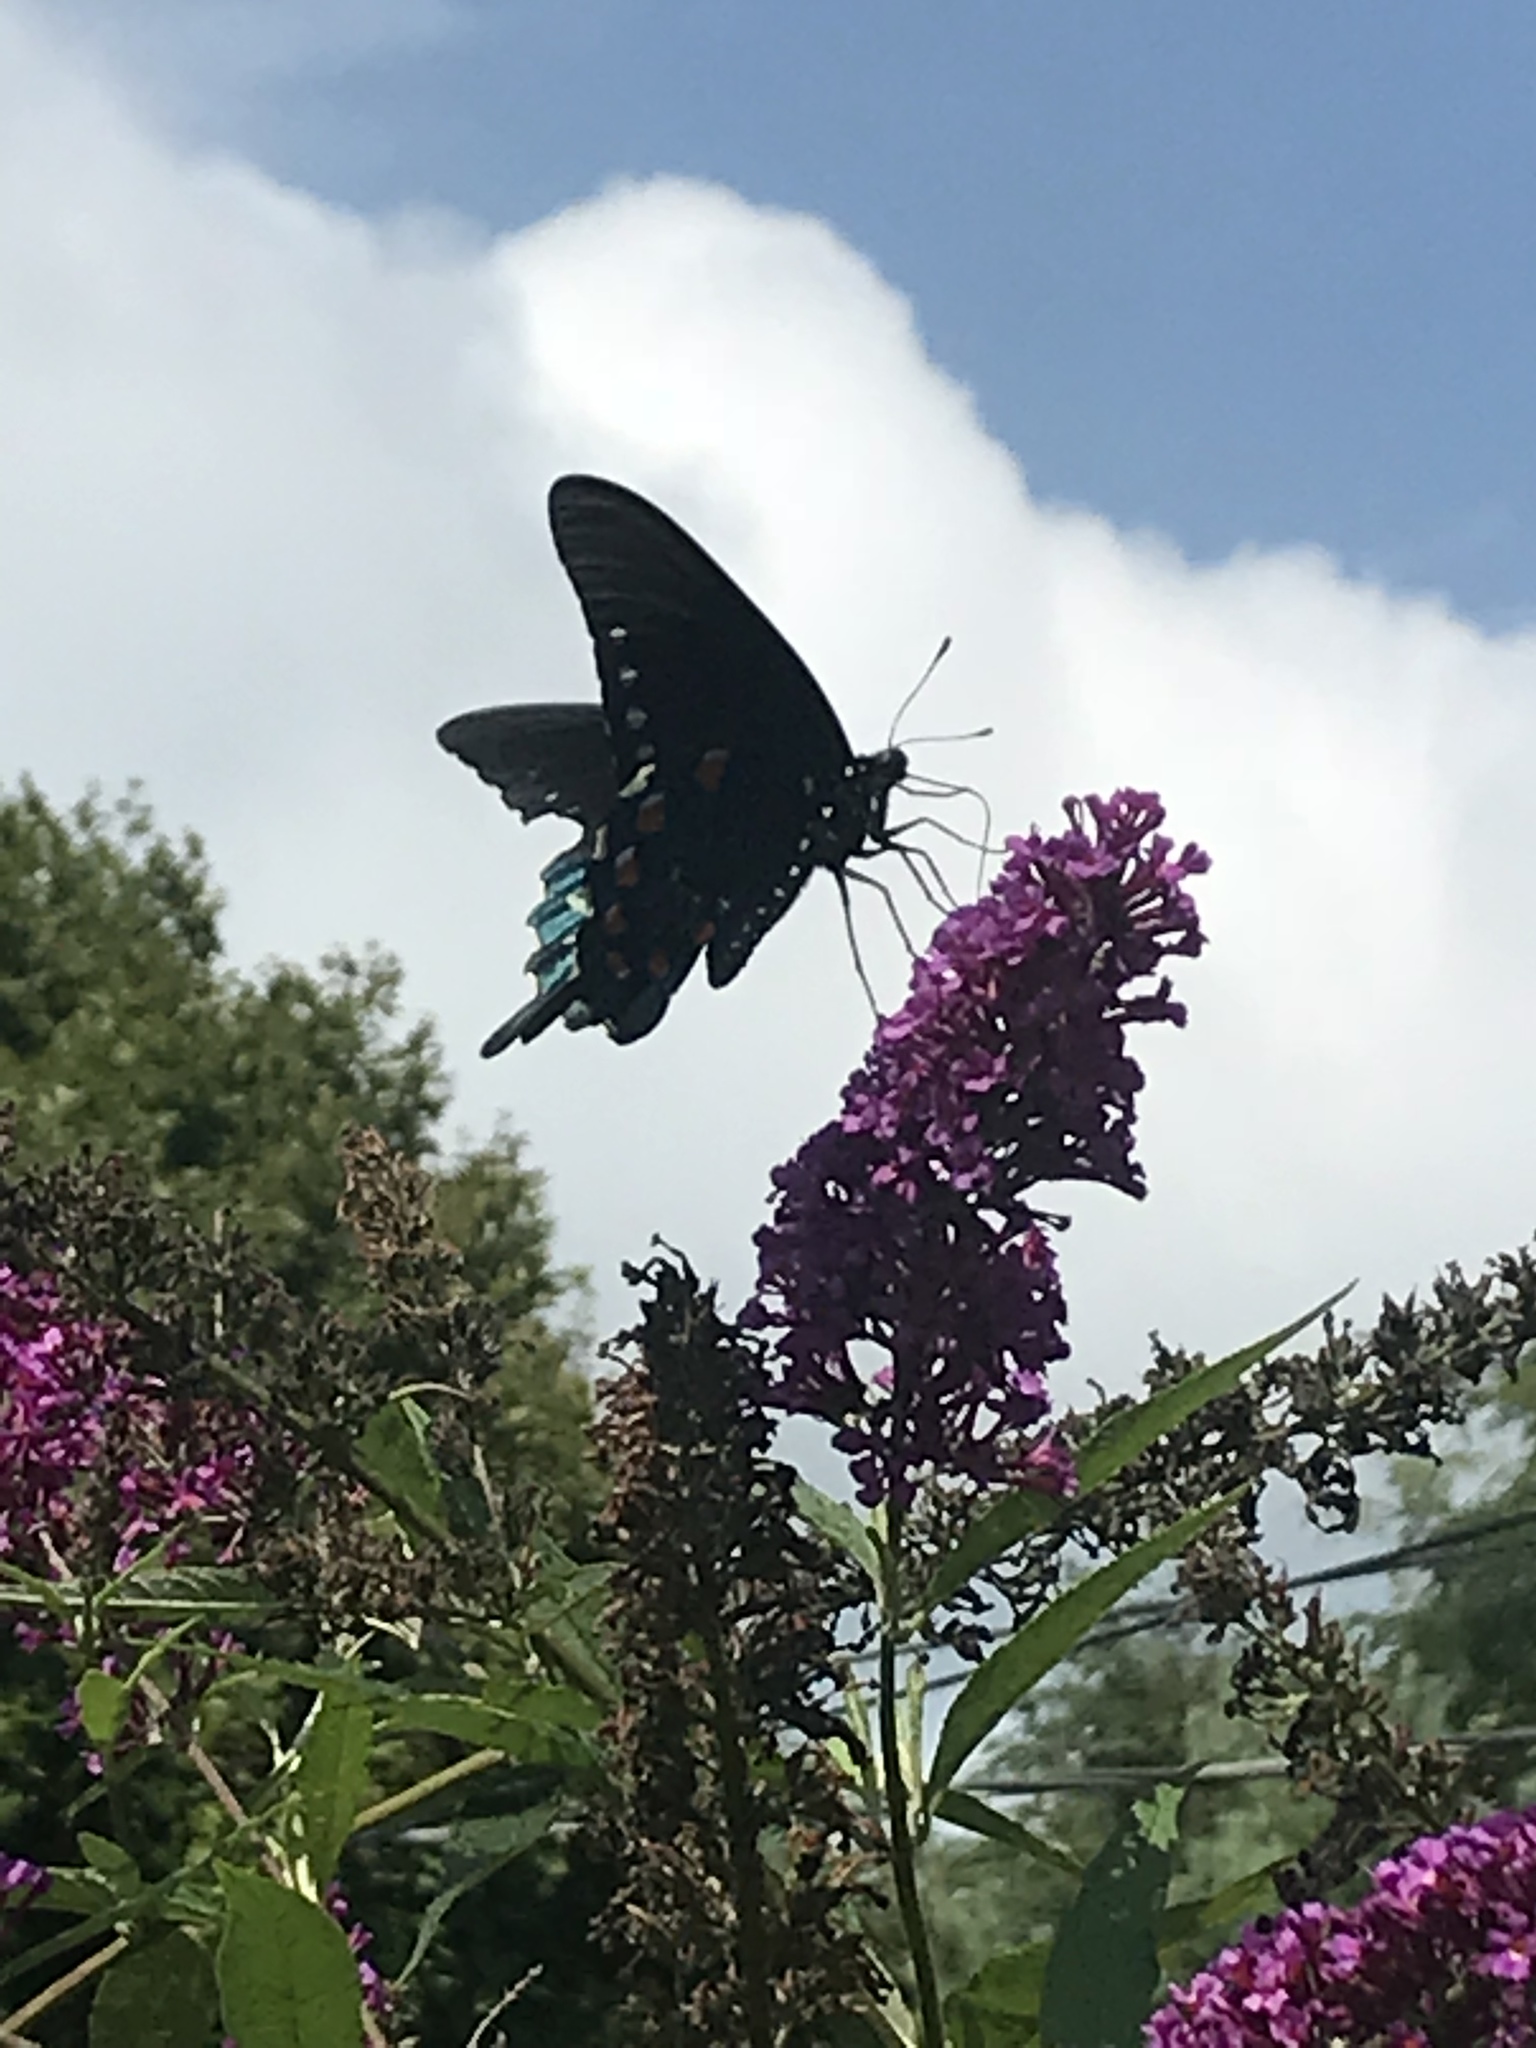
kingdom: Animalia
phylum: Arthropoda
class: Insecta
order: Lepidoptera
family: Papilionidae
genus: Battus
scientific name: Battus philenor
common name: Pipevine swallowtail
